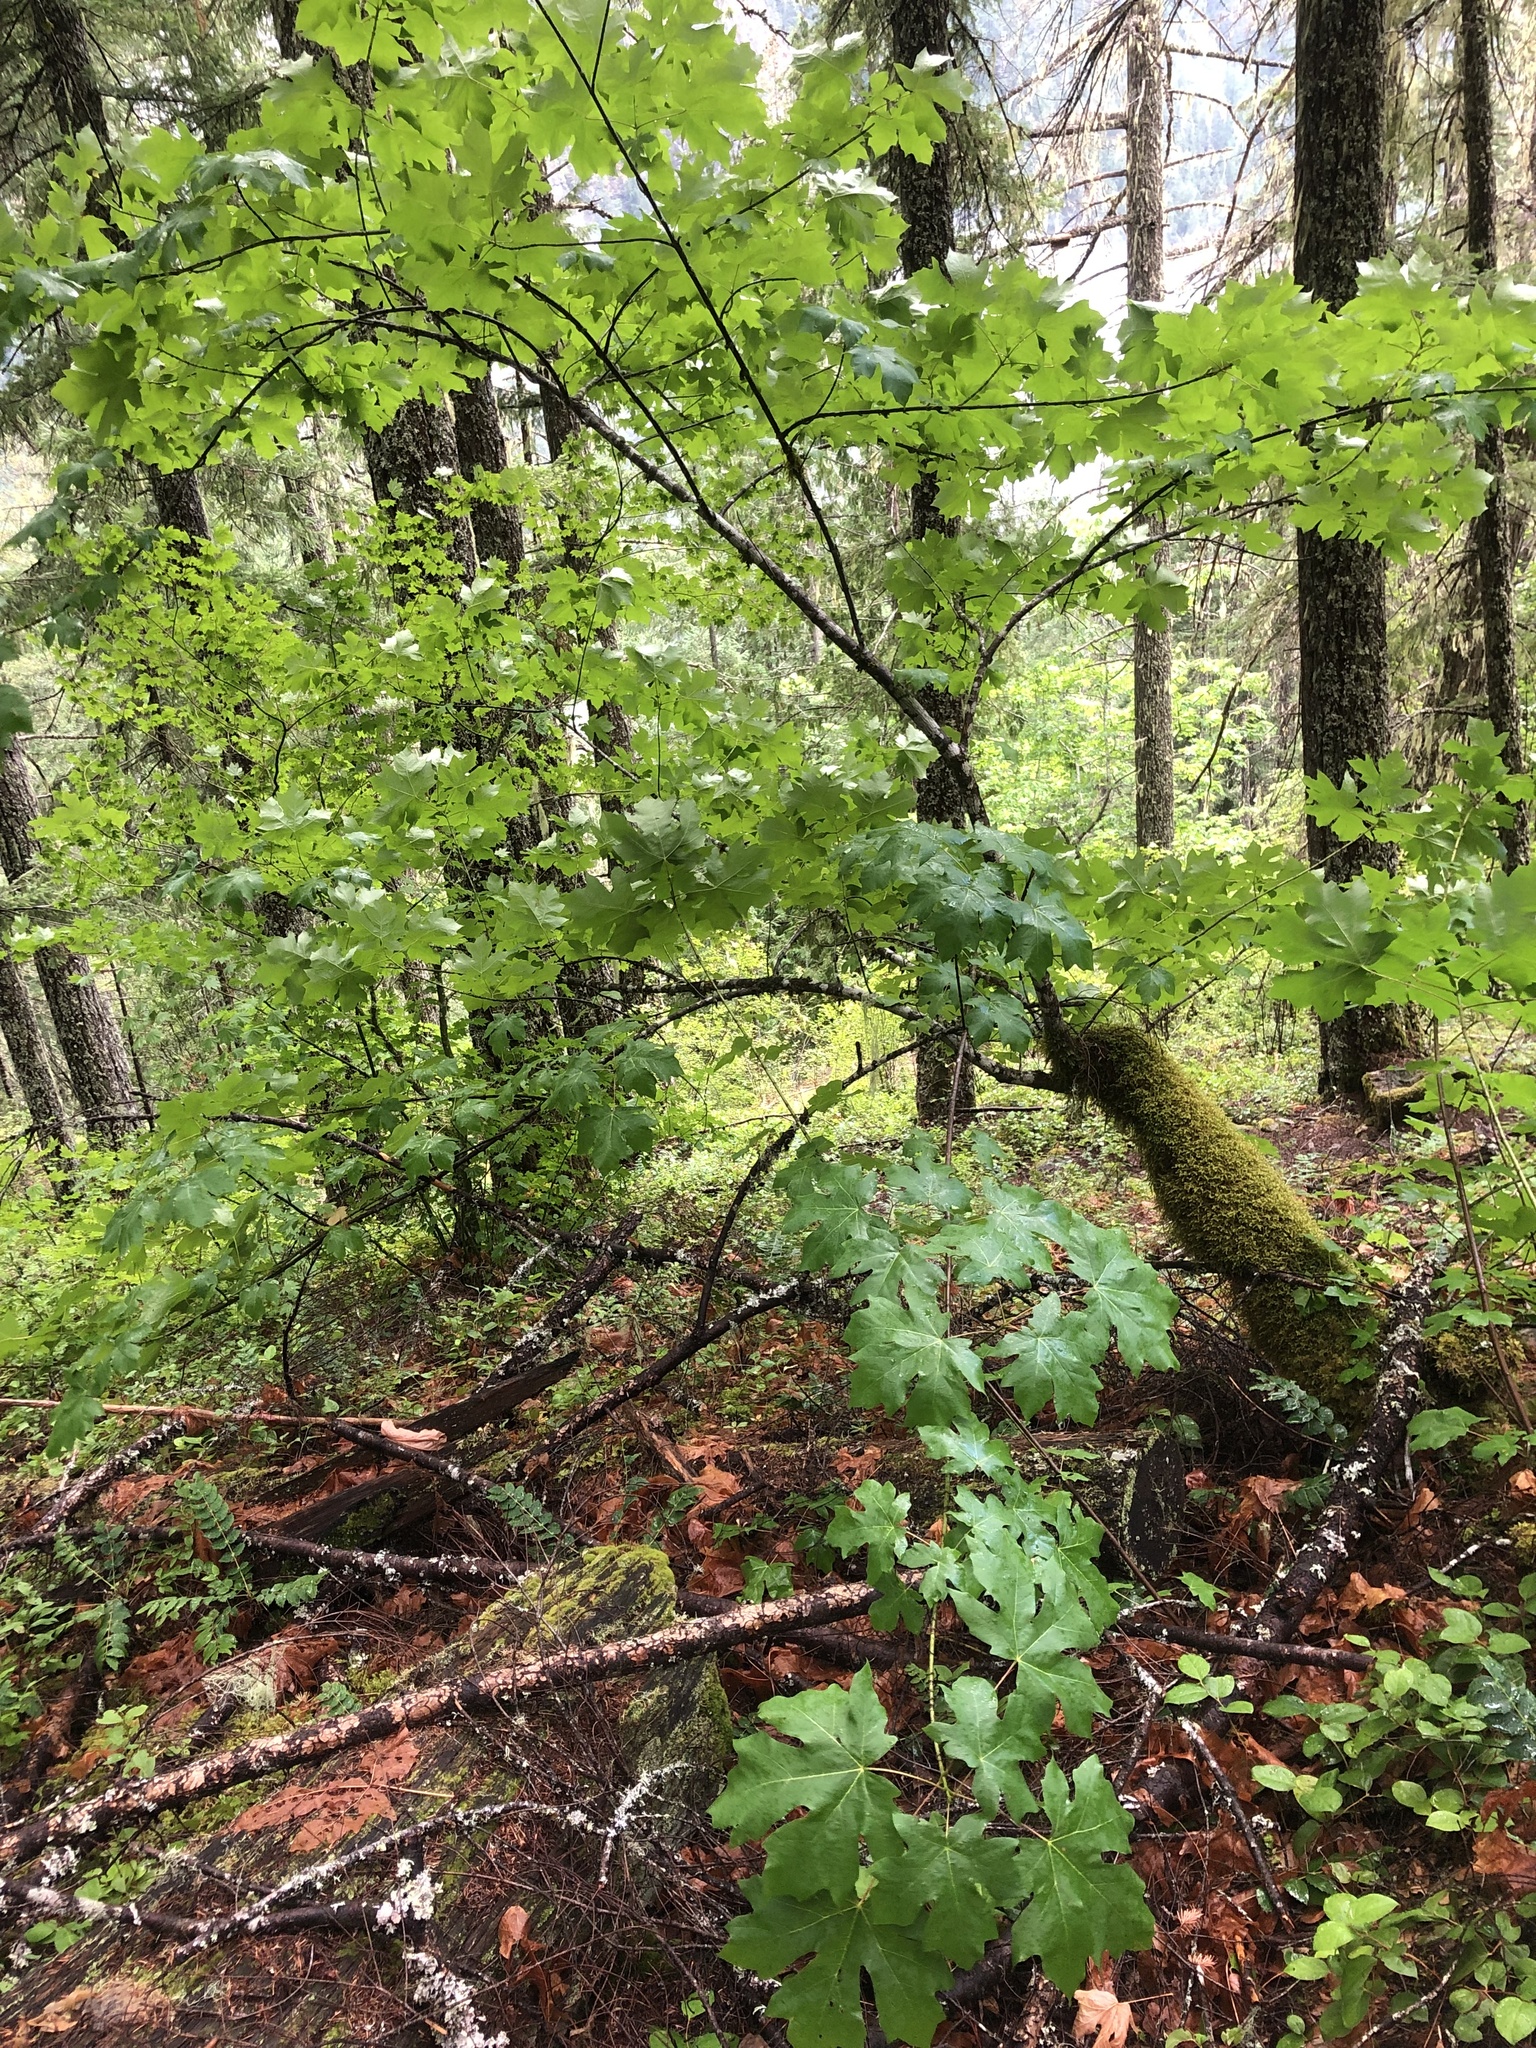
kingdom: Plantae
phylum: Tracheophyta
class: Magnoliopsida
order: Sapindales
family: Sapindaceae
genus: Acer
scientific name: Acer macrophyllum
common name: Oregon maple
